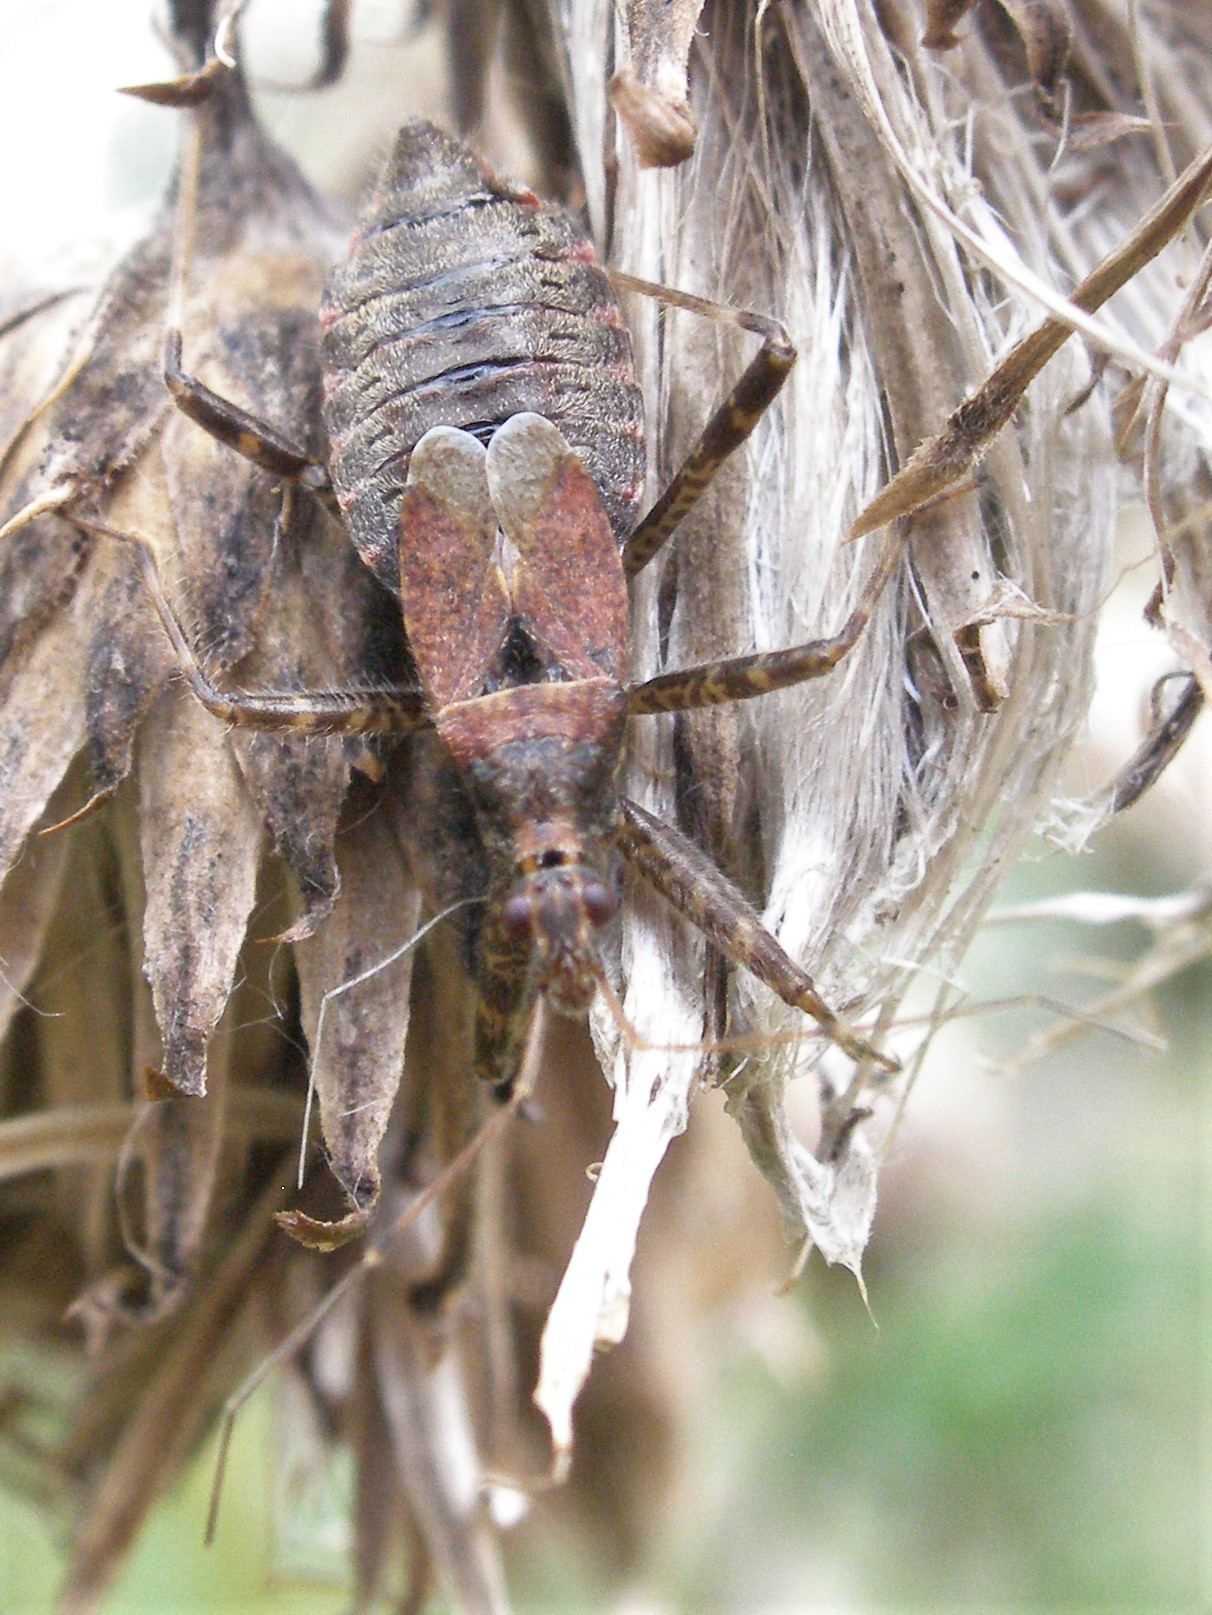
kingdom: Animalia
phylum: Arthropoda
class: Insecta
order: Hemiptera
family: Nabidae
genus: Himacerus
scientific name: Himacerus apterus
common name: Tree damsel bug
